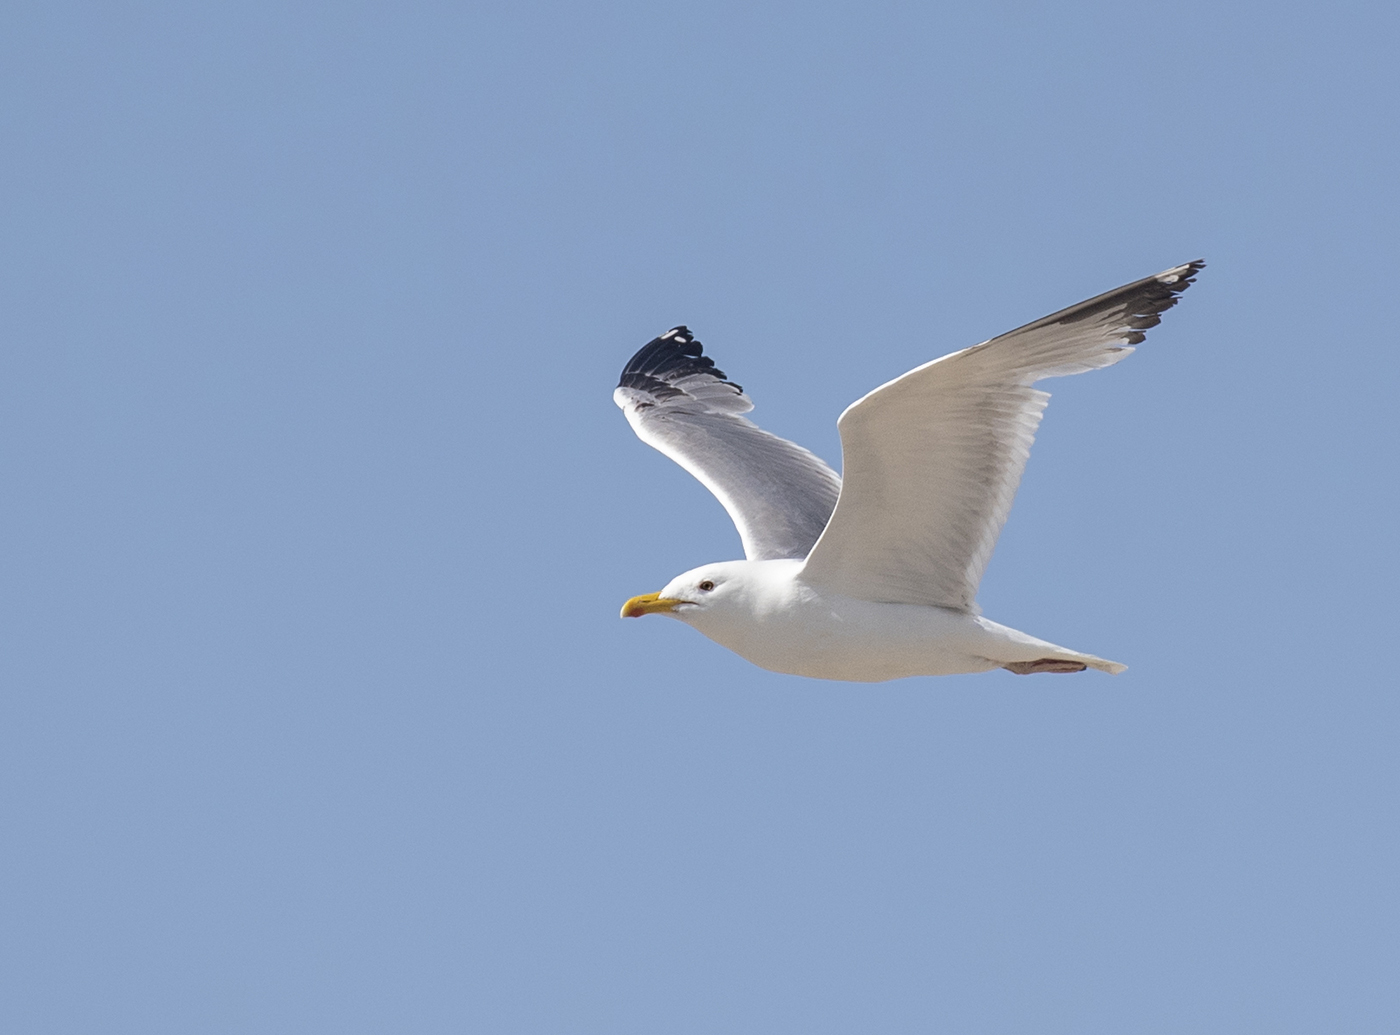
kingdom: Animalia
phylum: Chordata
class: Aves
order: Charadriiformes
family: Laridae
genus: Larus
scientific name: Larus cachinnans
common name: Caspian gull
